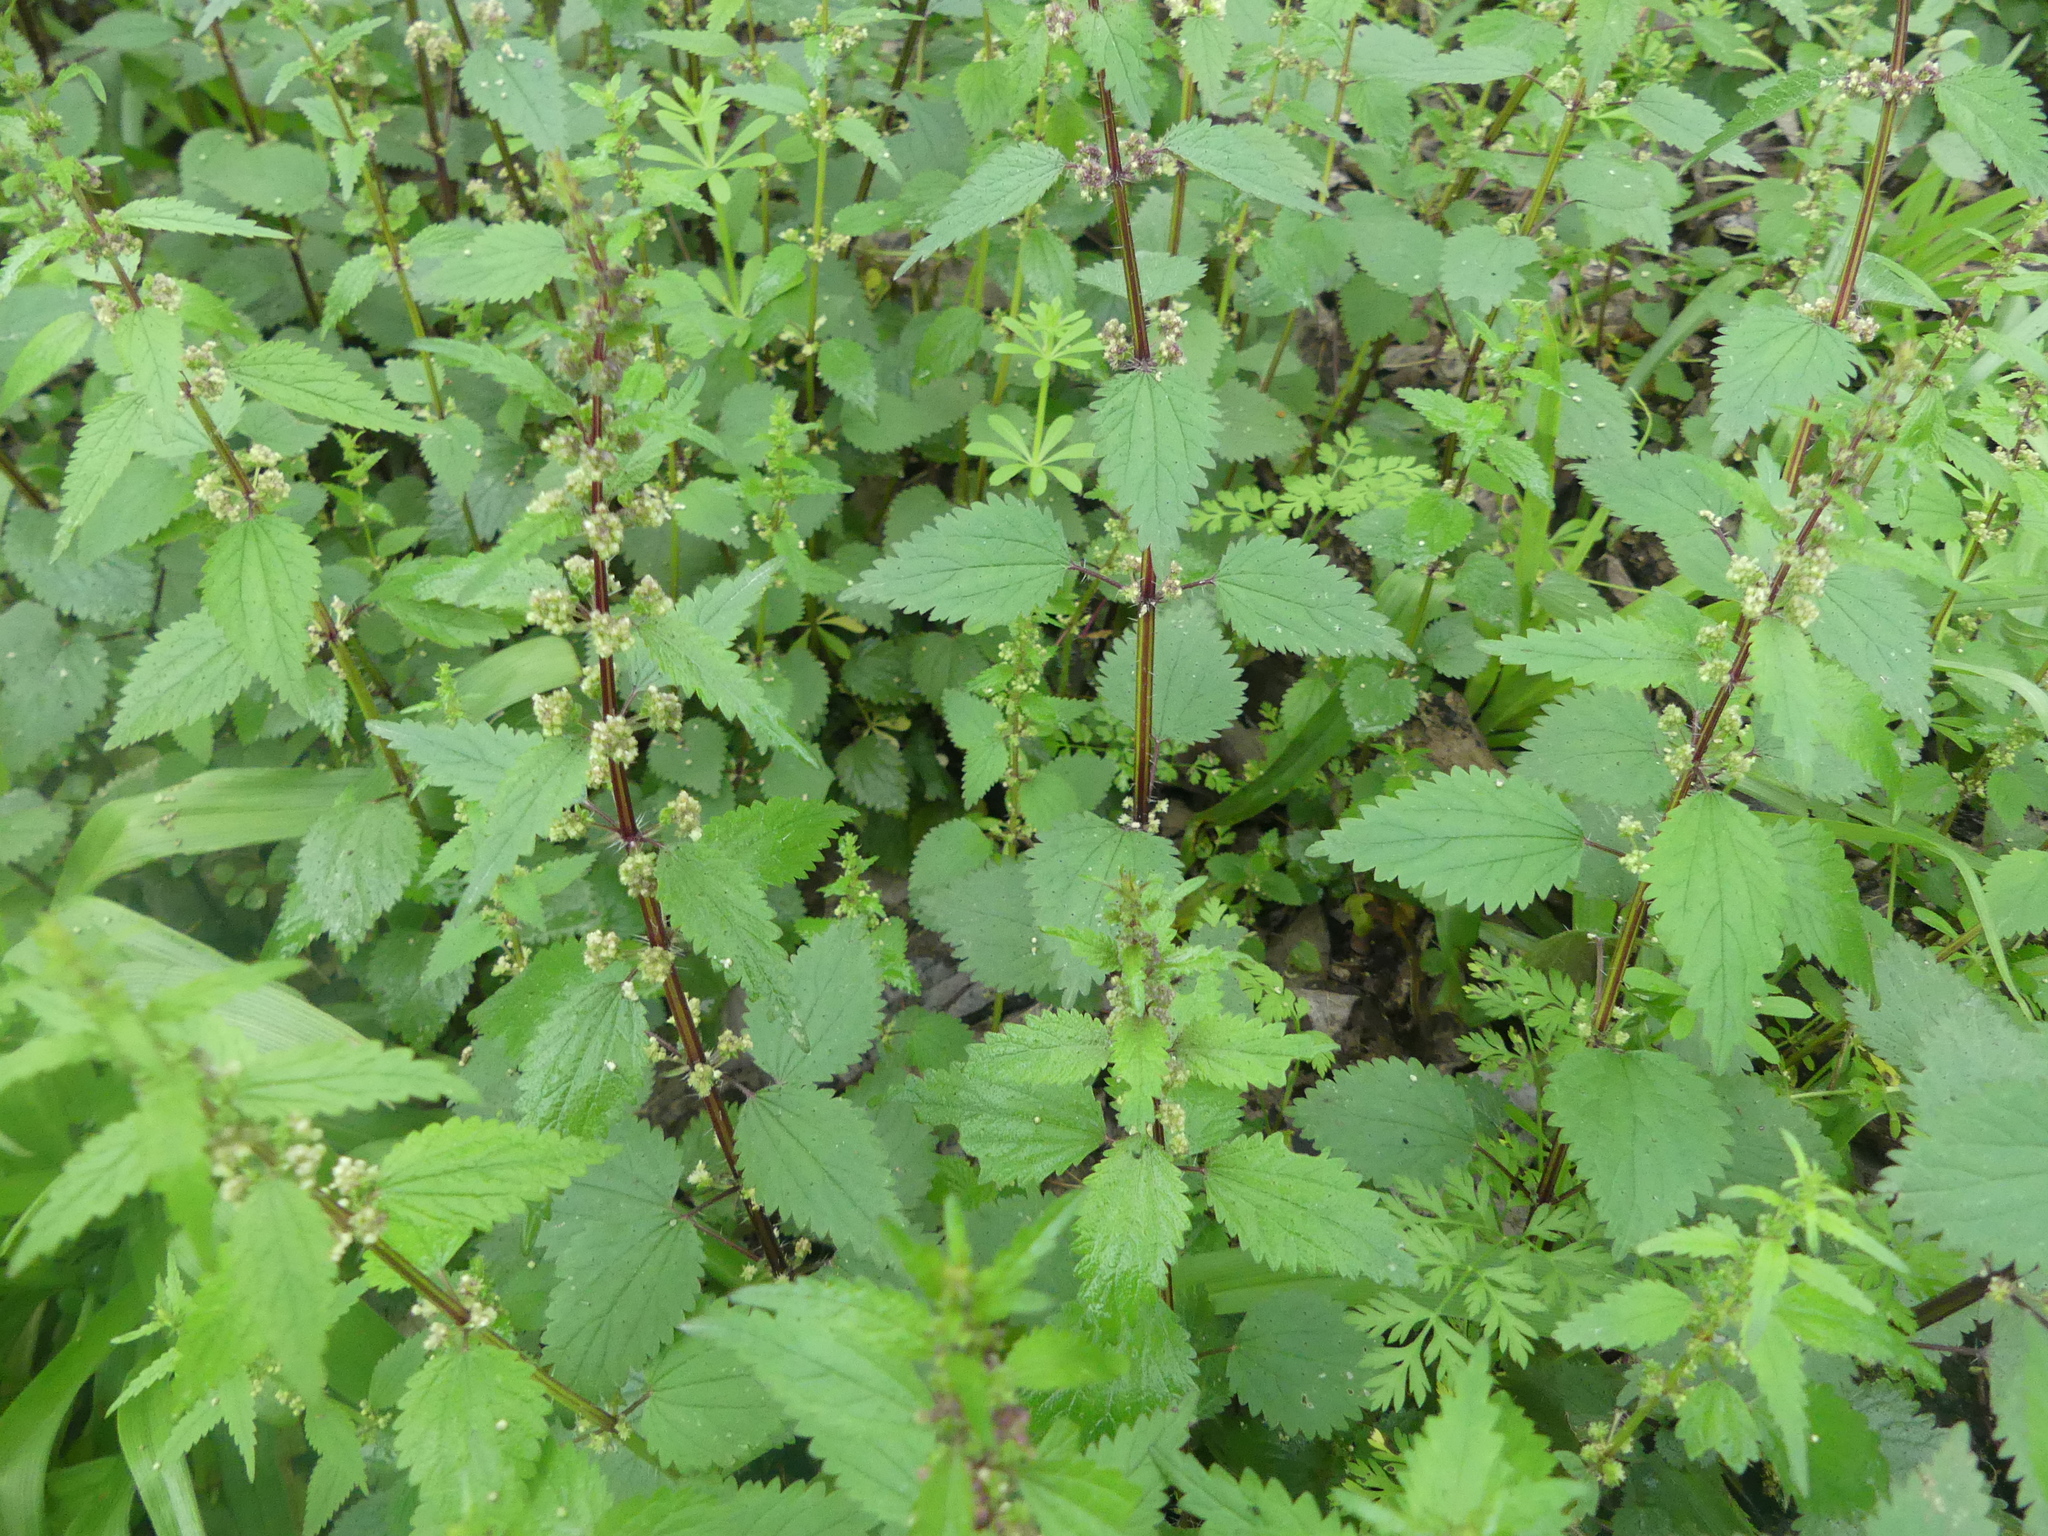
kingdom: Plantae
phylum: Tracheophyta
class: Magnoliopsida
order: Rosales
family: Urticaceae
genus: Urtica
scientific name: Urtica chamaedryoides
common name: Heart-leaf nettle
